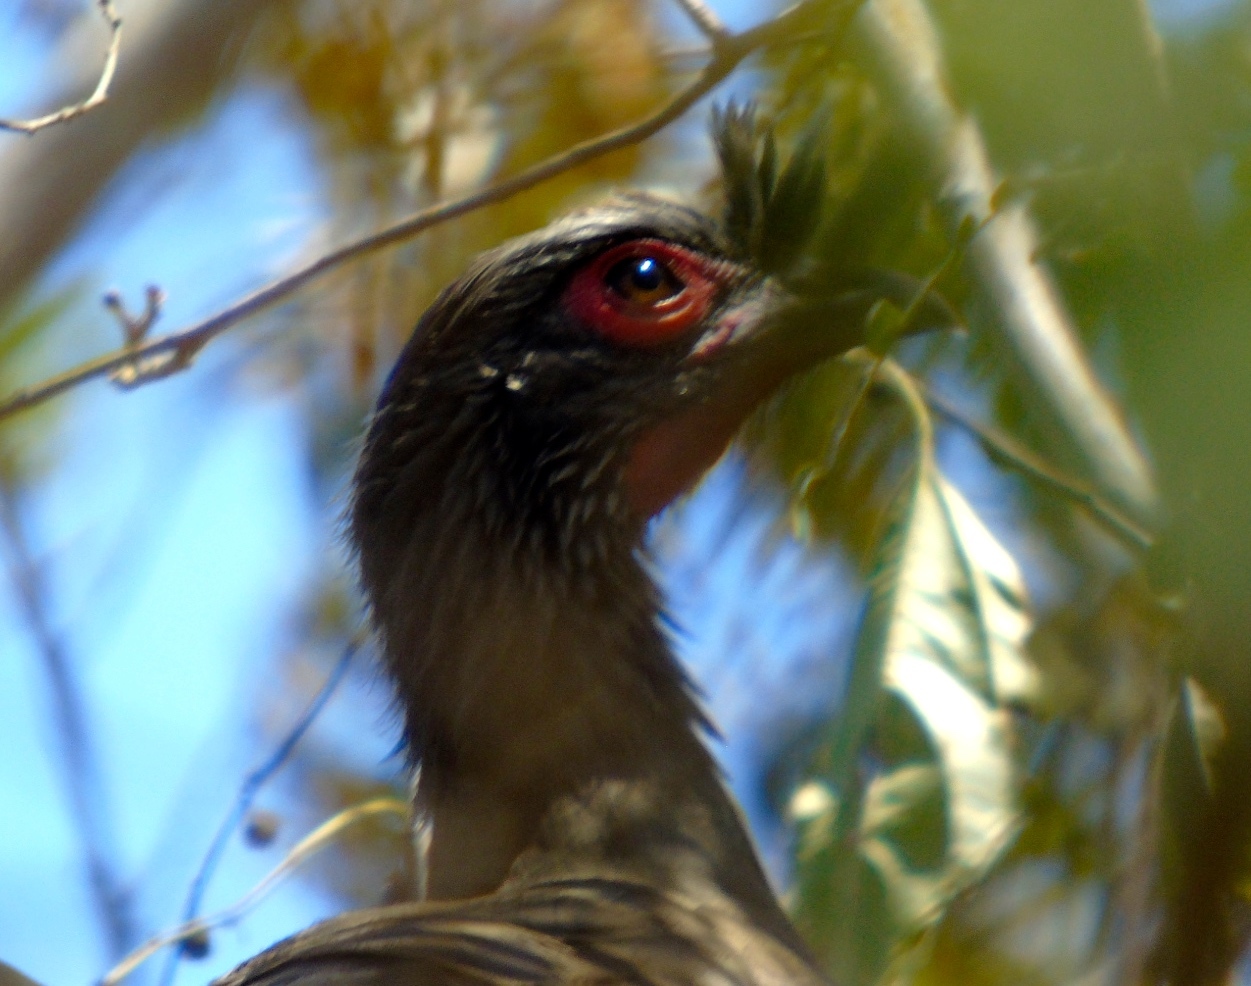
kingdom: Animalia
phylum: Chordata
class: Aves
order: Galliformes
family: Cracidae
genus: Ortalis
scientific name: Ortalis wagleri
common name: Rufous-bellied chachalaca
